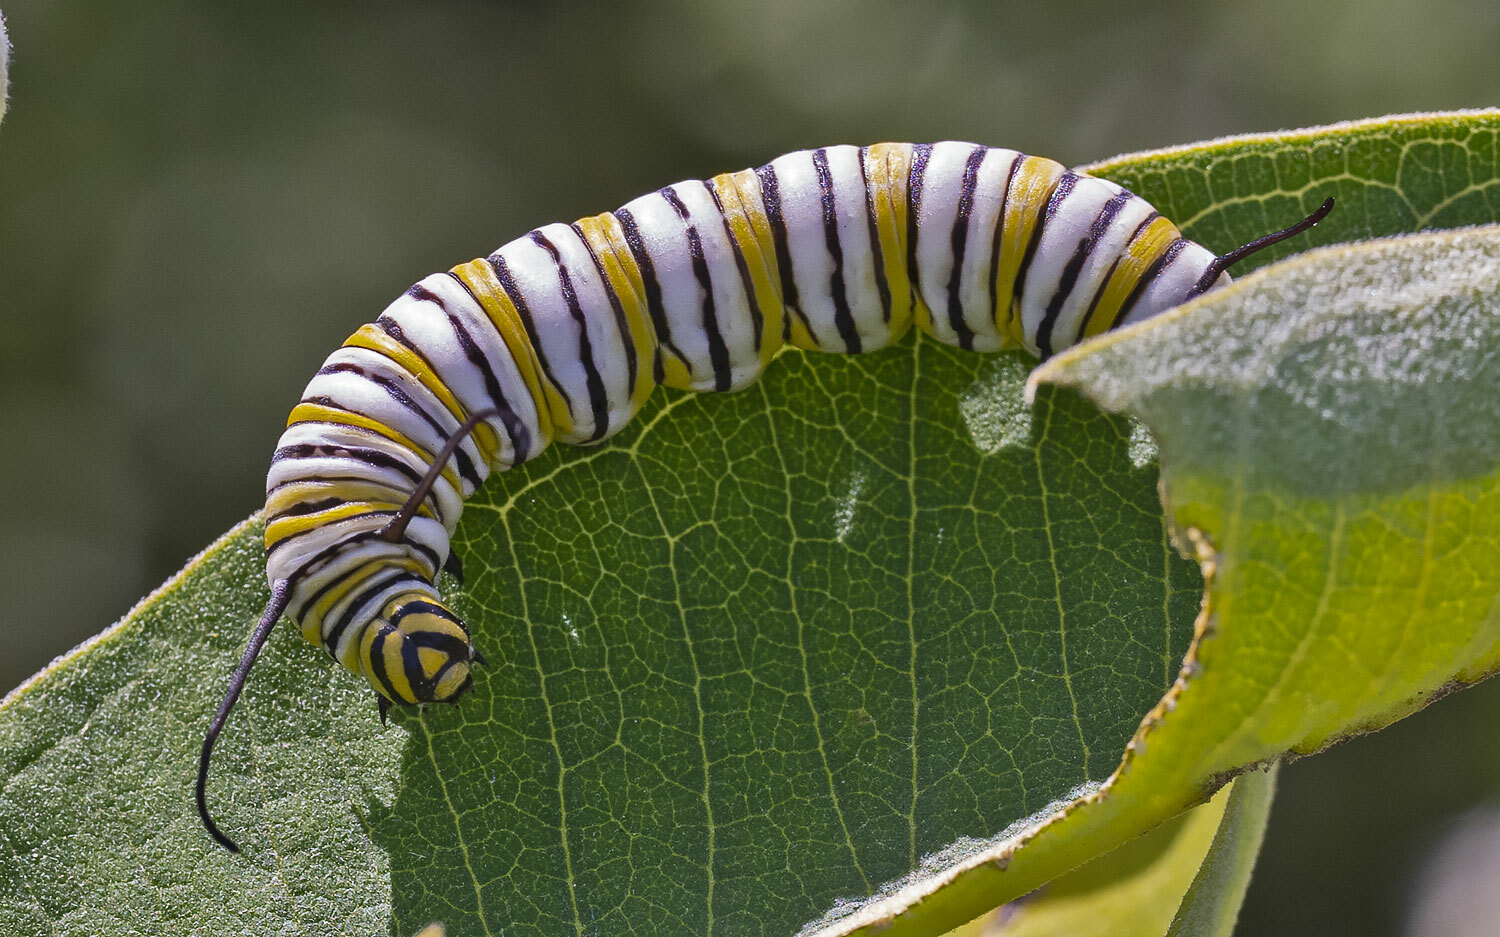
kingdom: Animalia
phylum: Arthropoda
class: Insecta
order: Lepidoptera
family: Nymphalidae
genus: Danaus
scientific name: Danaus plexippus
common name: Monarch
